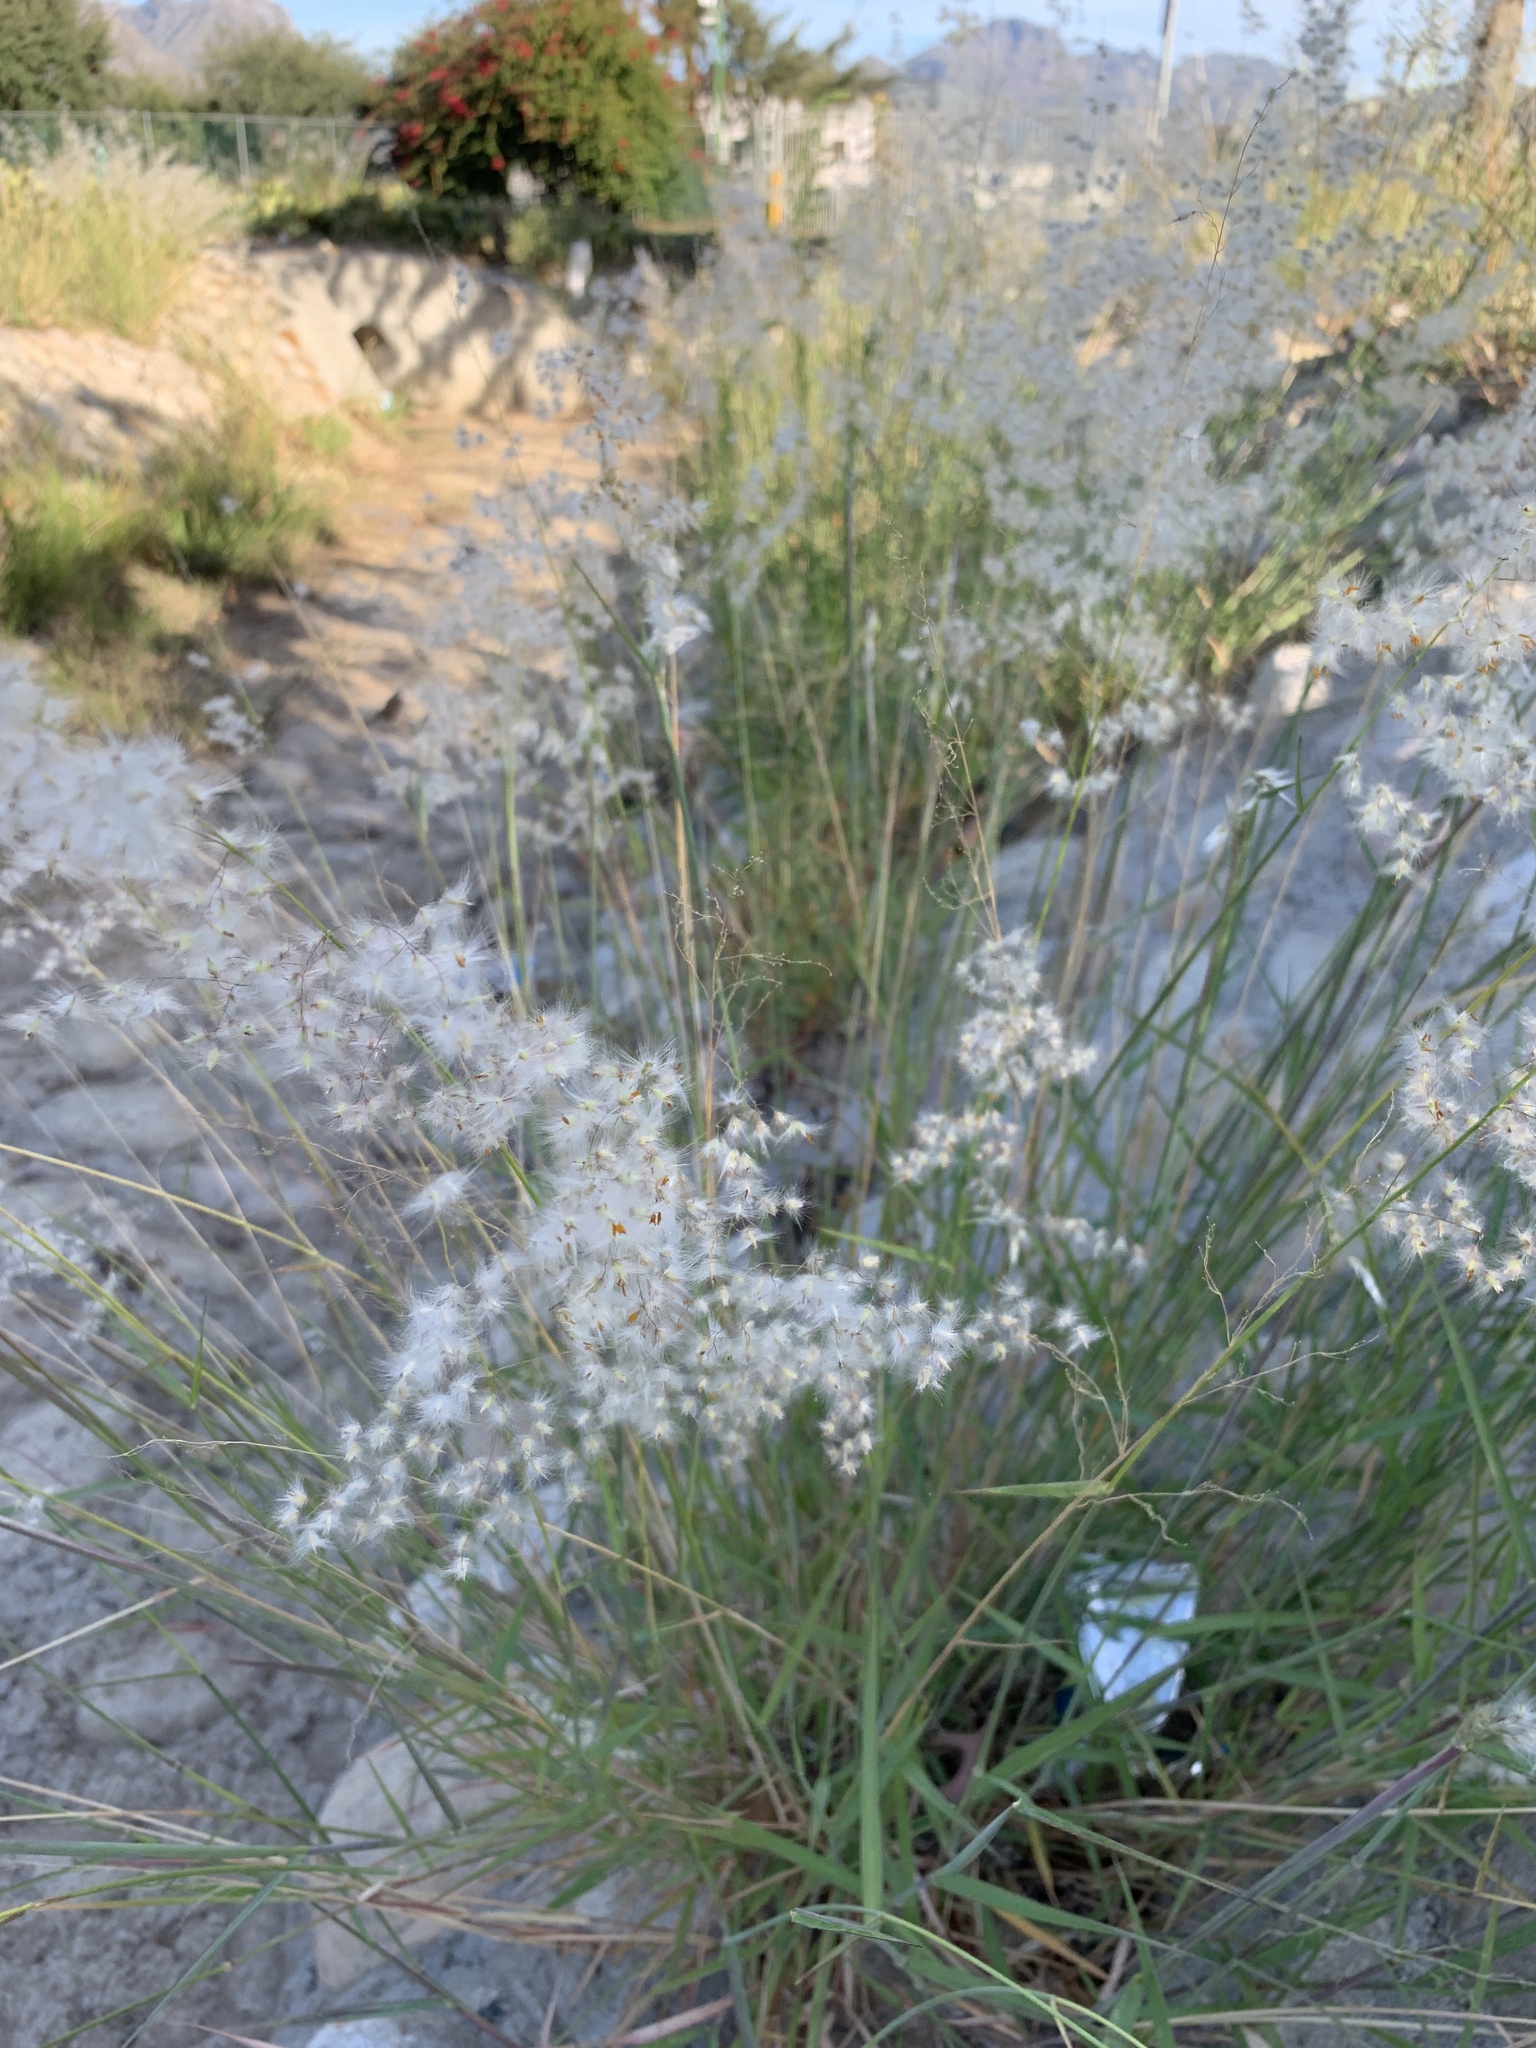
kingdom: Plantae
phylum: Tracheophyta
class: Liliopsida
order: Poales
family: Poaceae
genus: Melinis
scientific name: Melinis repens
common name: Rose natal grass
